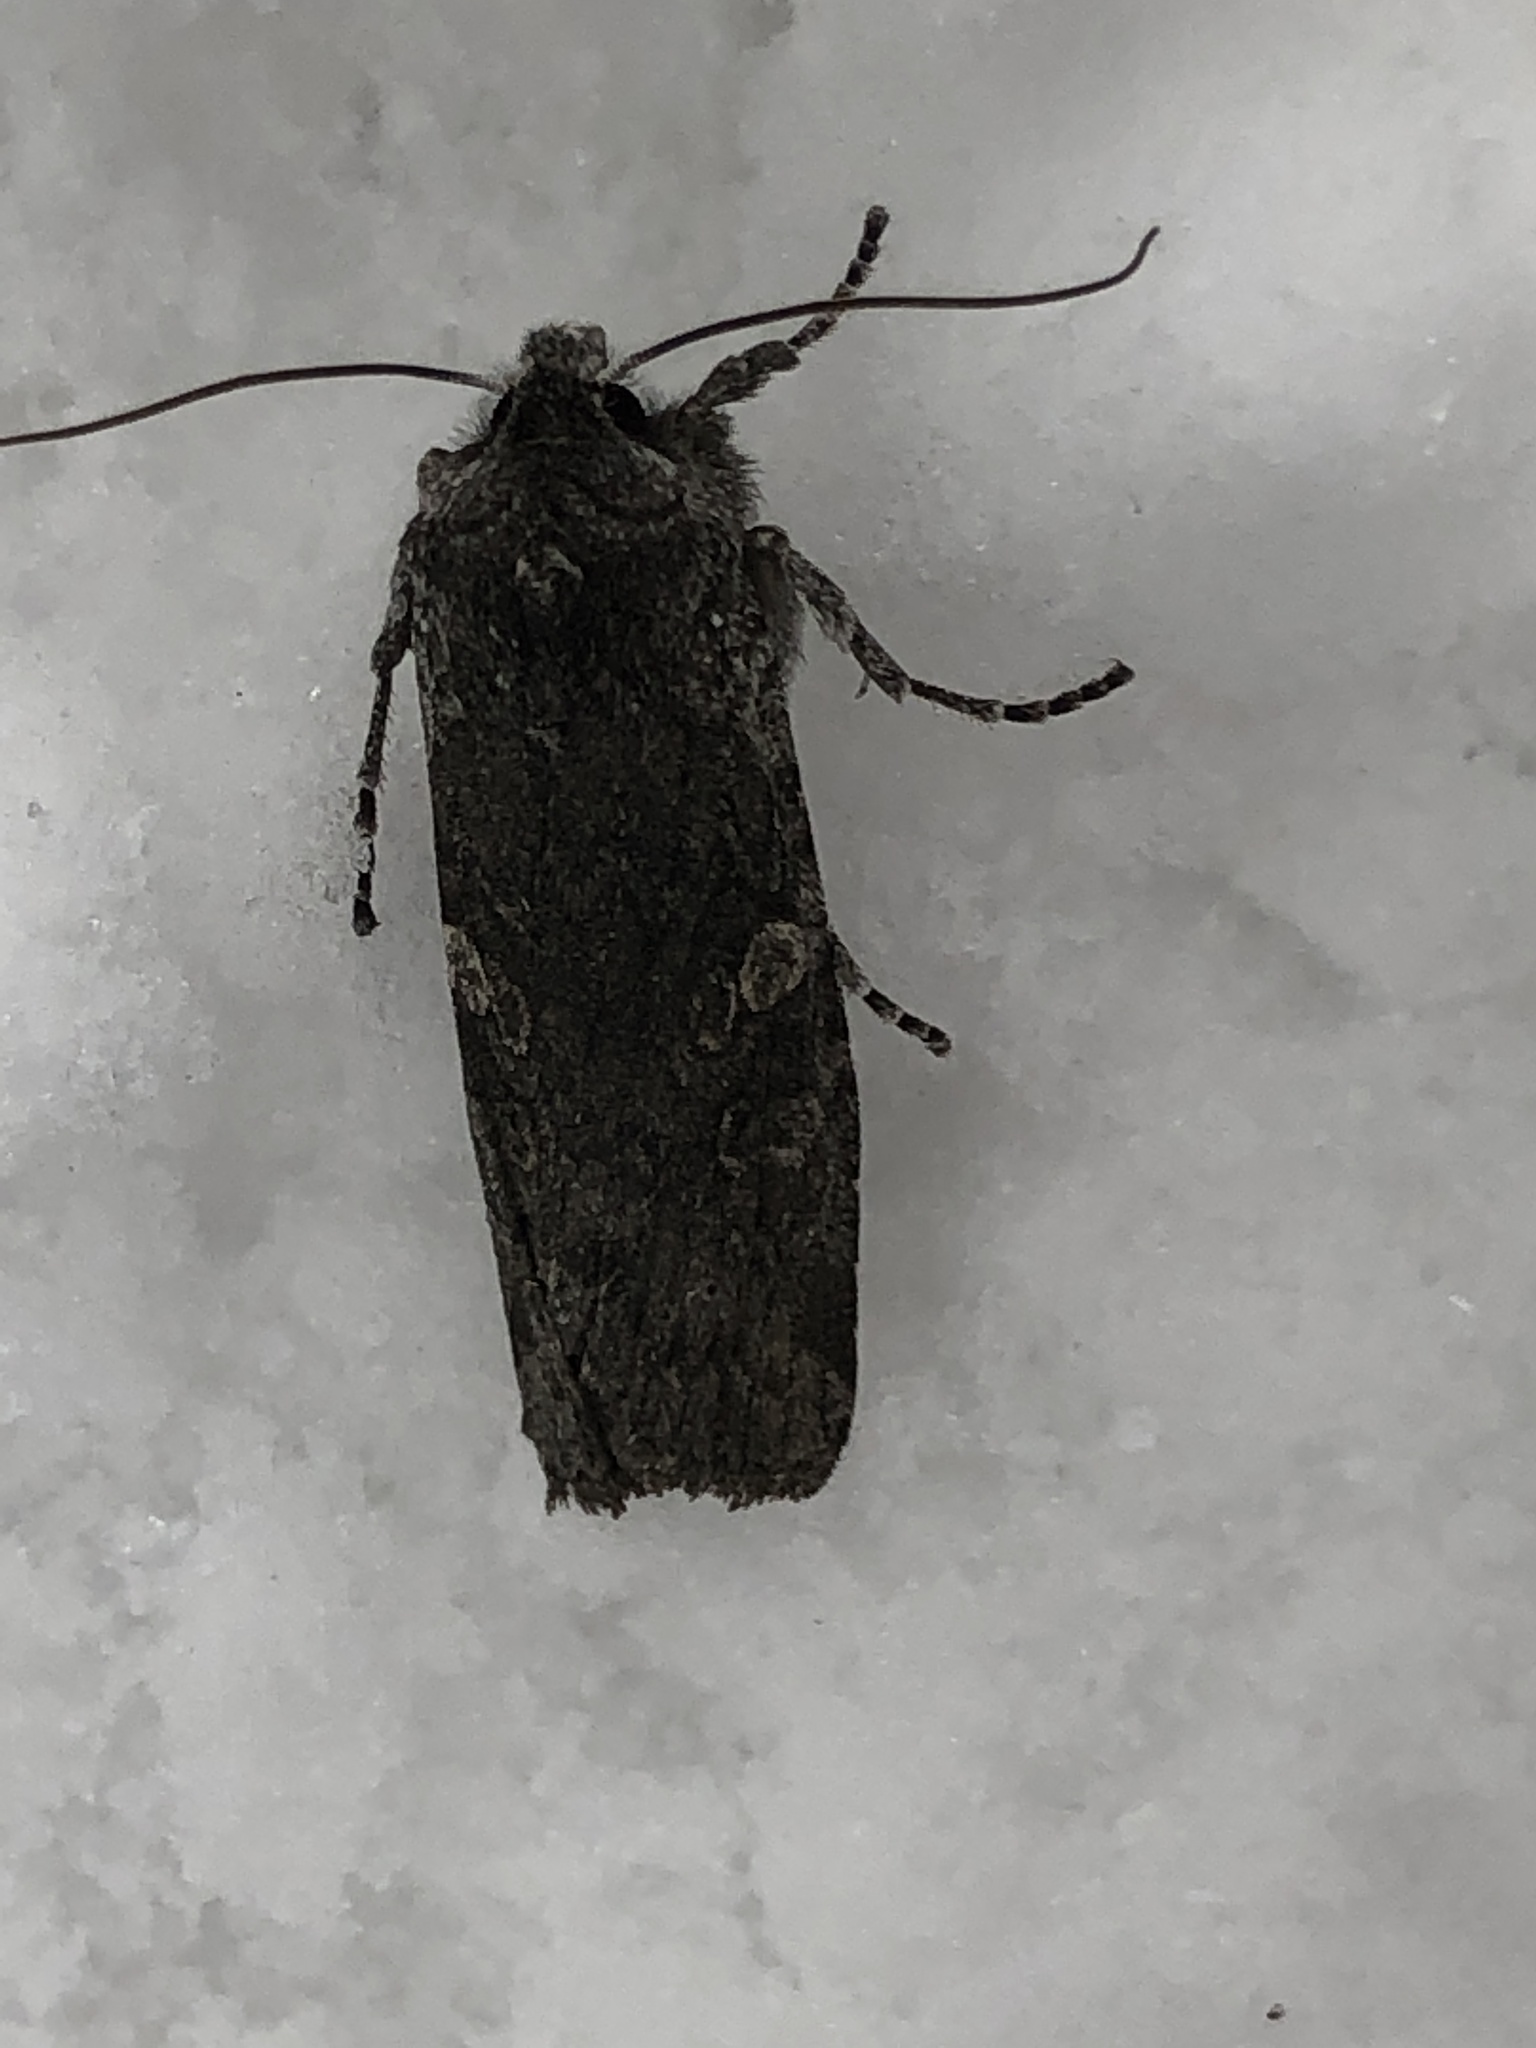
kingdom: Animalia
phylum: Arthropoda
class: Insecta
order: Lepidoptera
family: Noctuidae
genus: Lithophane
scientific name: Lithophane grotei
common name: Grote's pinion moth
